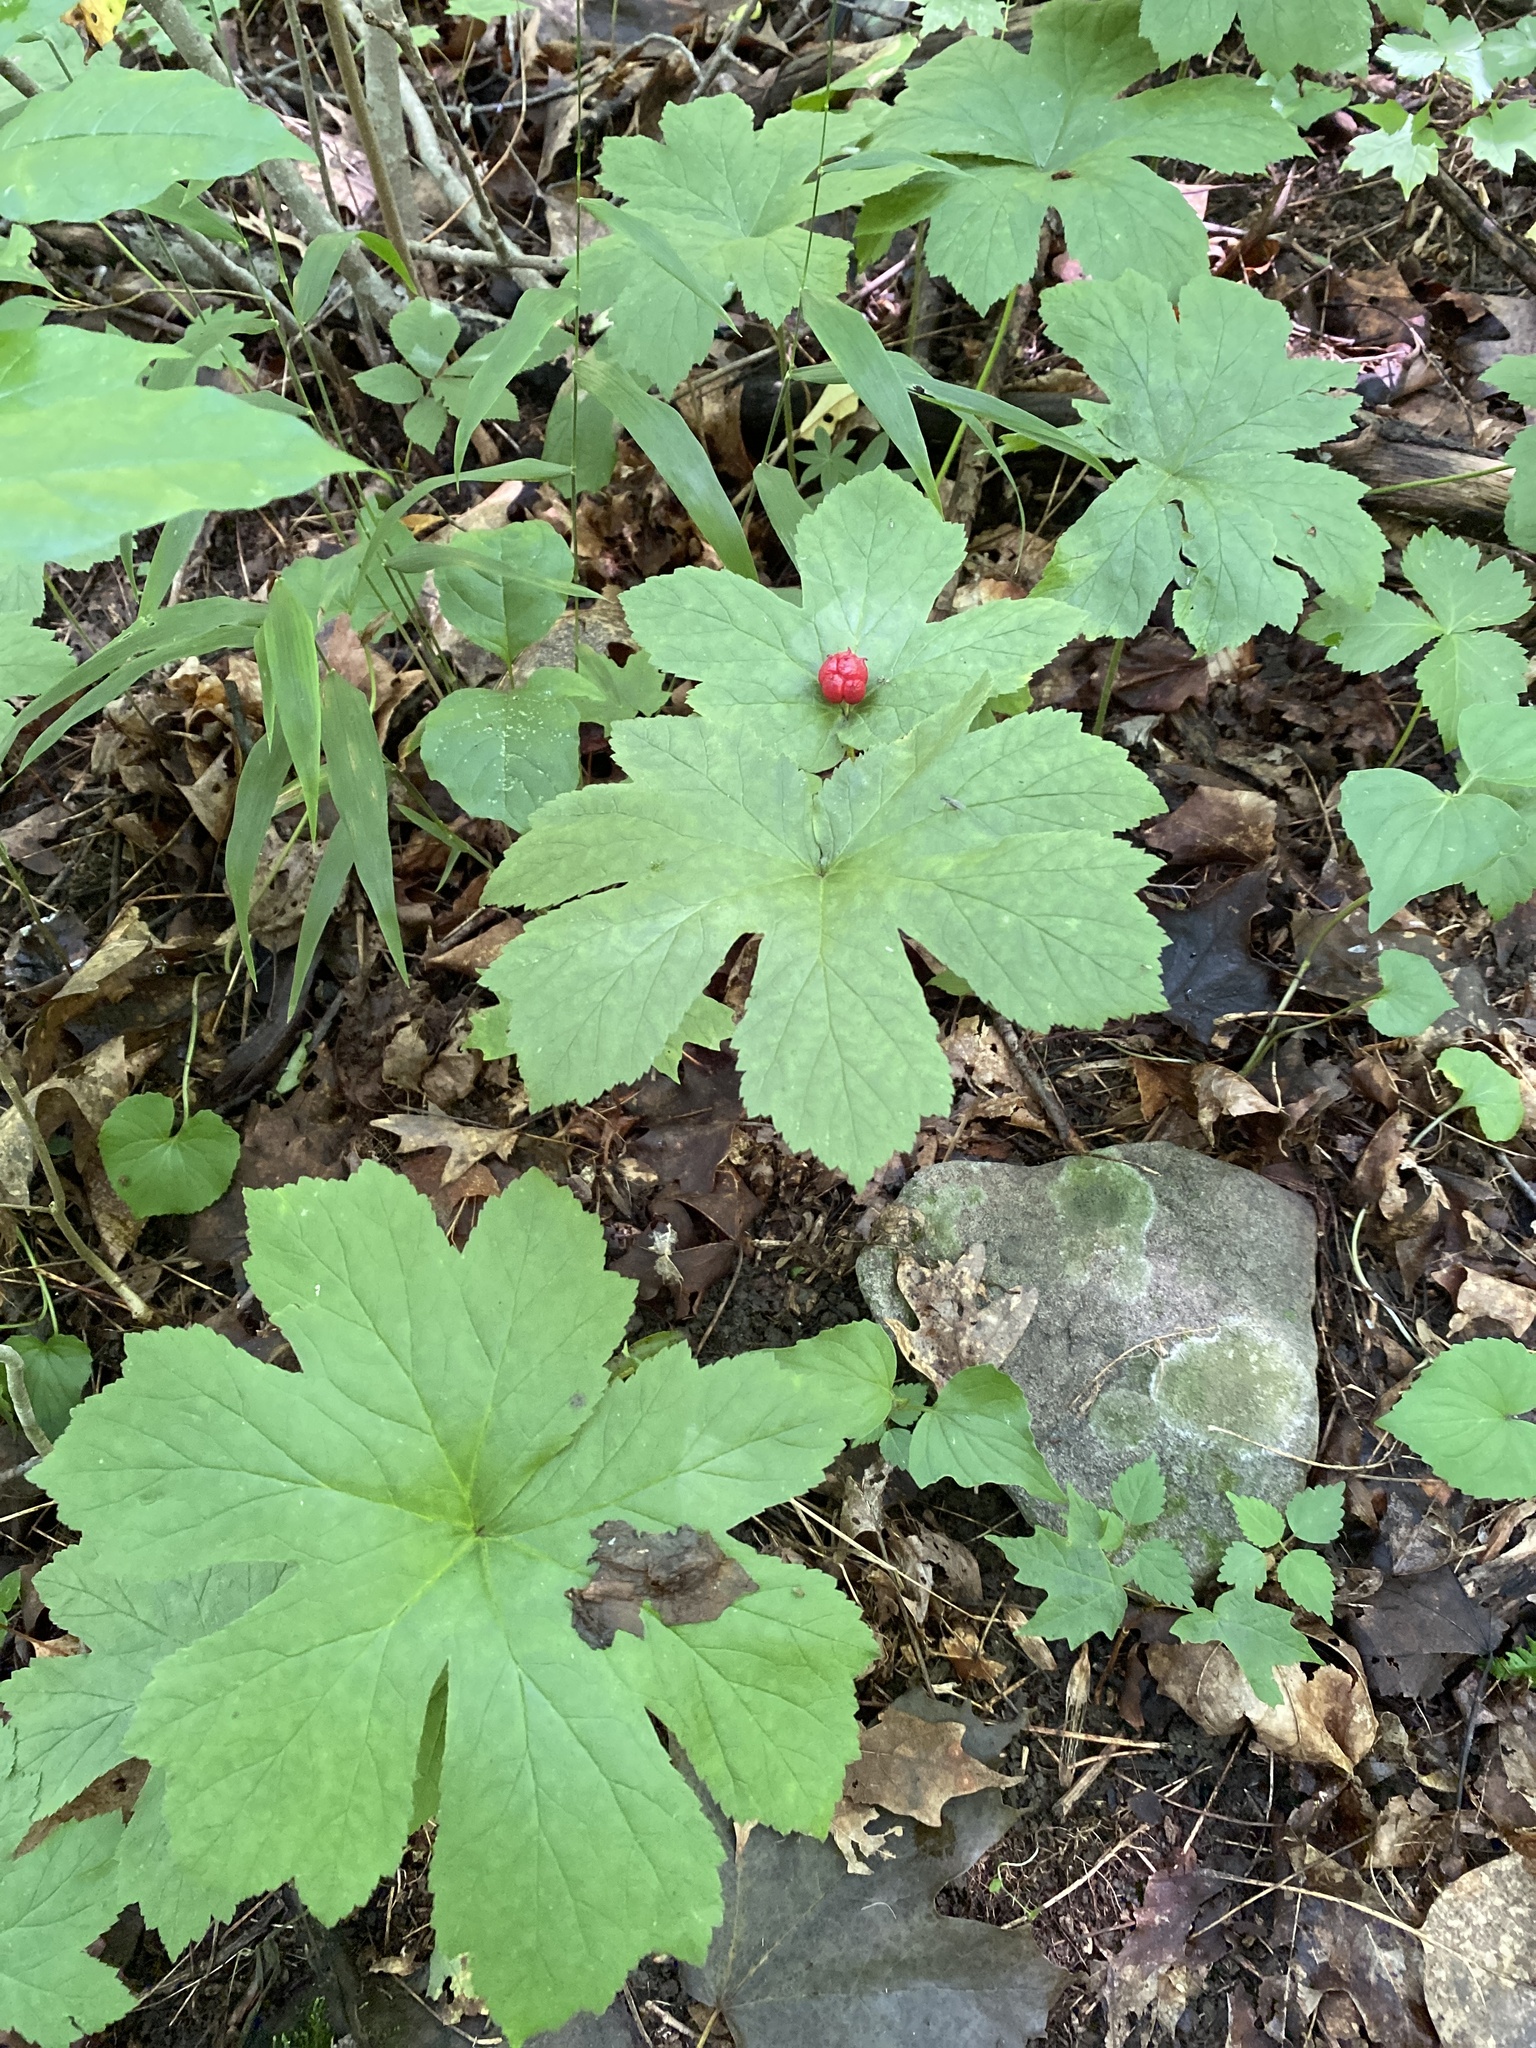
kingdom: Plantae
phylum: Tracheophyta
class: Magnoliopsida
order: Ranunculales
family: Ranunculaceae
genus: Hydrastis
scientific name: Hydrastis canadensis
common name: Goldenseal
